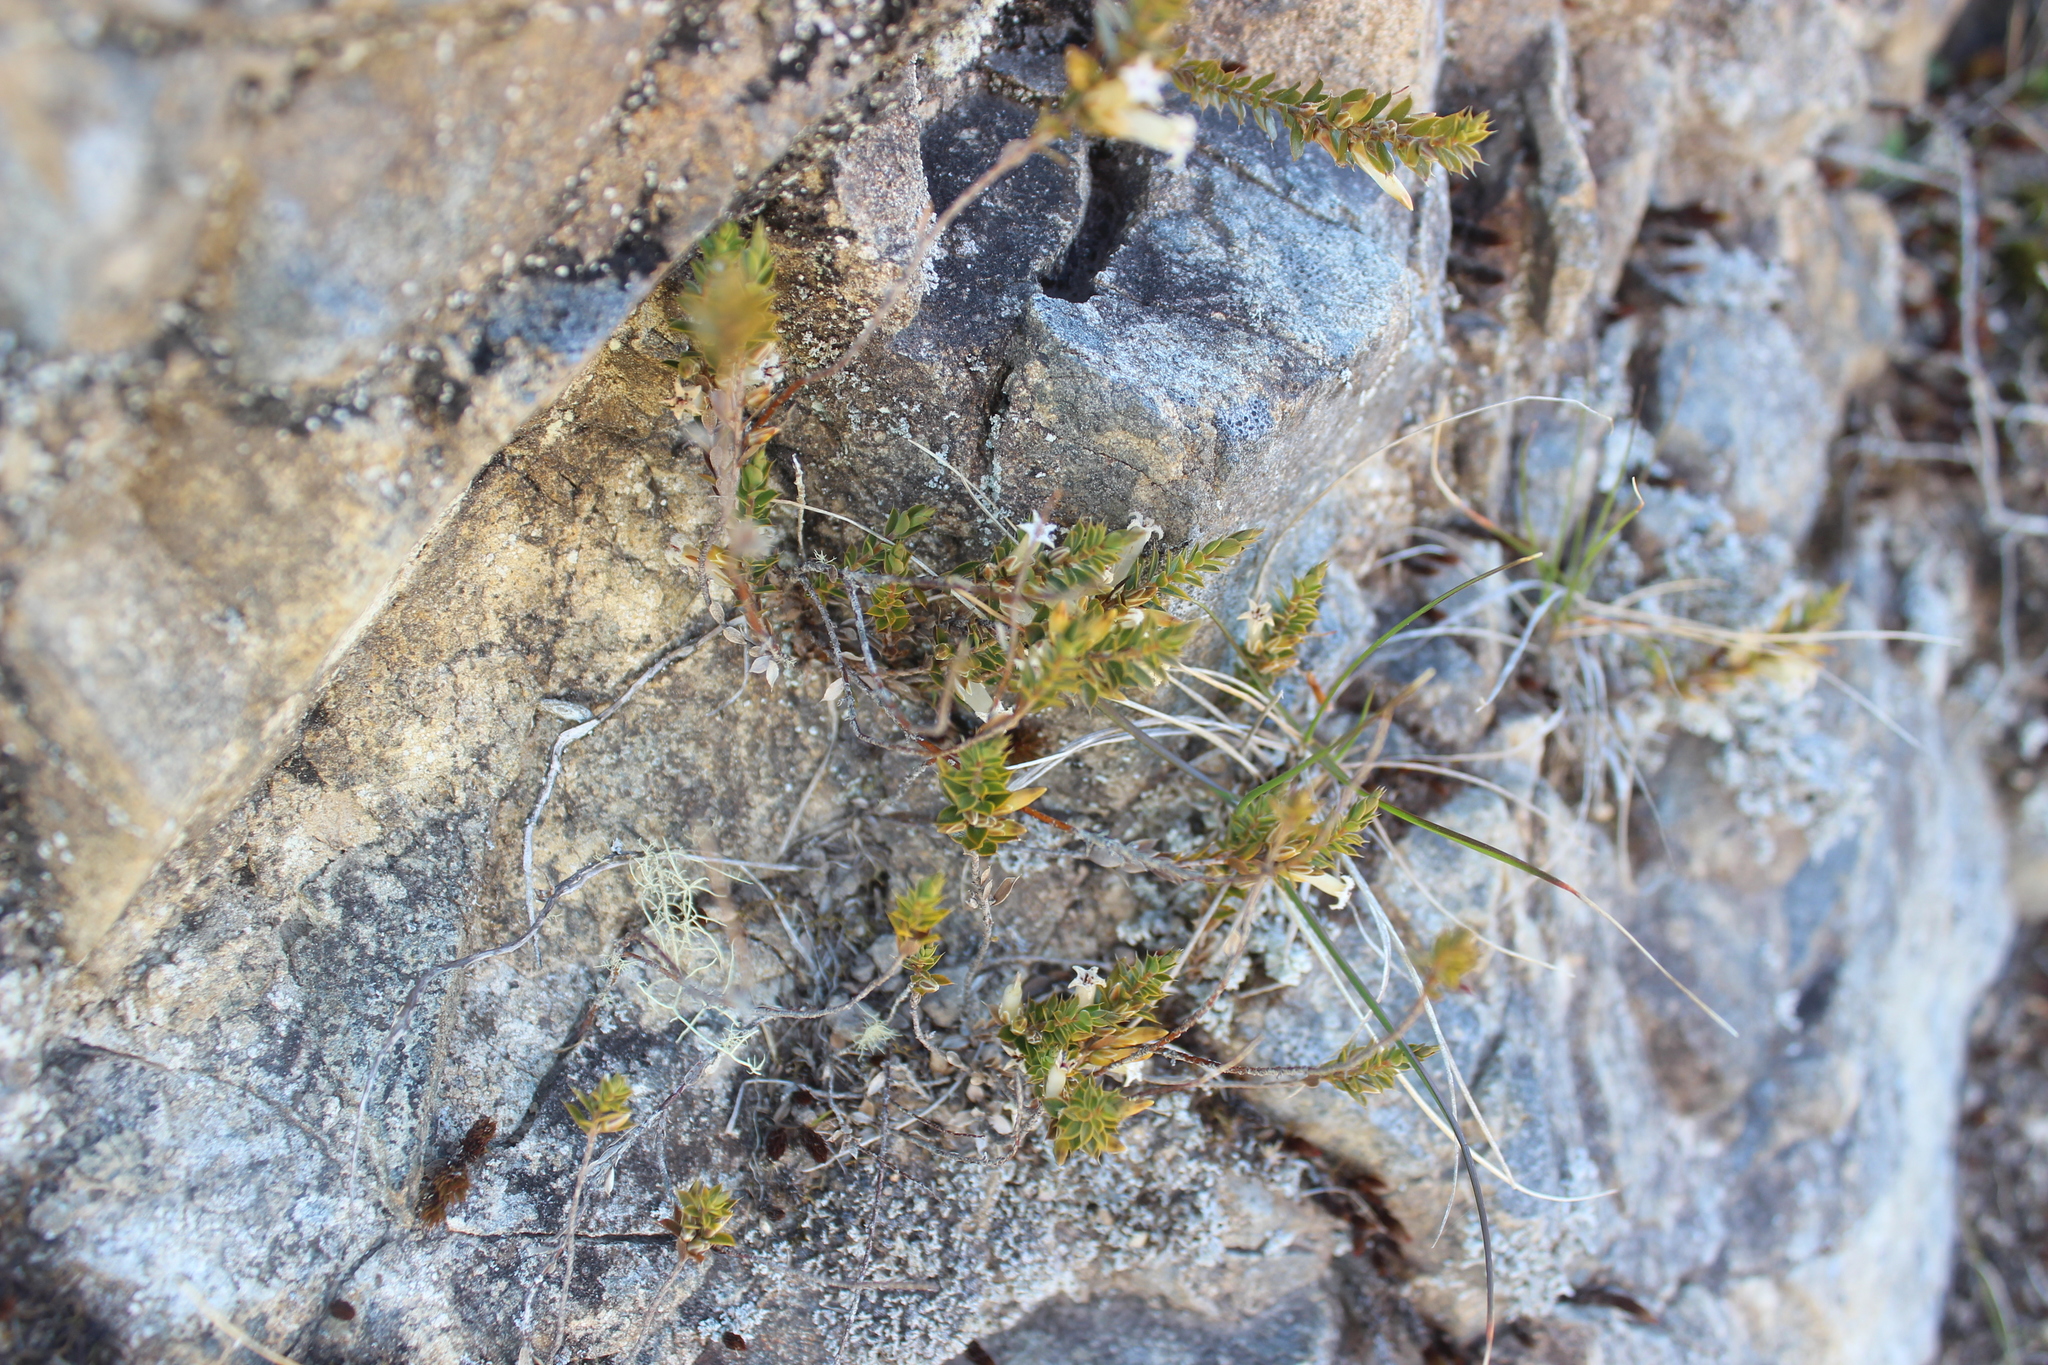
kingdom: Plantae
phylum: Tracheophyta
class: Magnoliopsida
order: Ericales
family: Ericaceae
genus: Styphelia
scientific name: Styphelia nesophila
